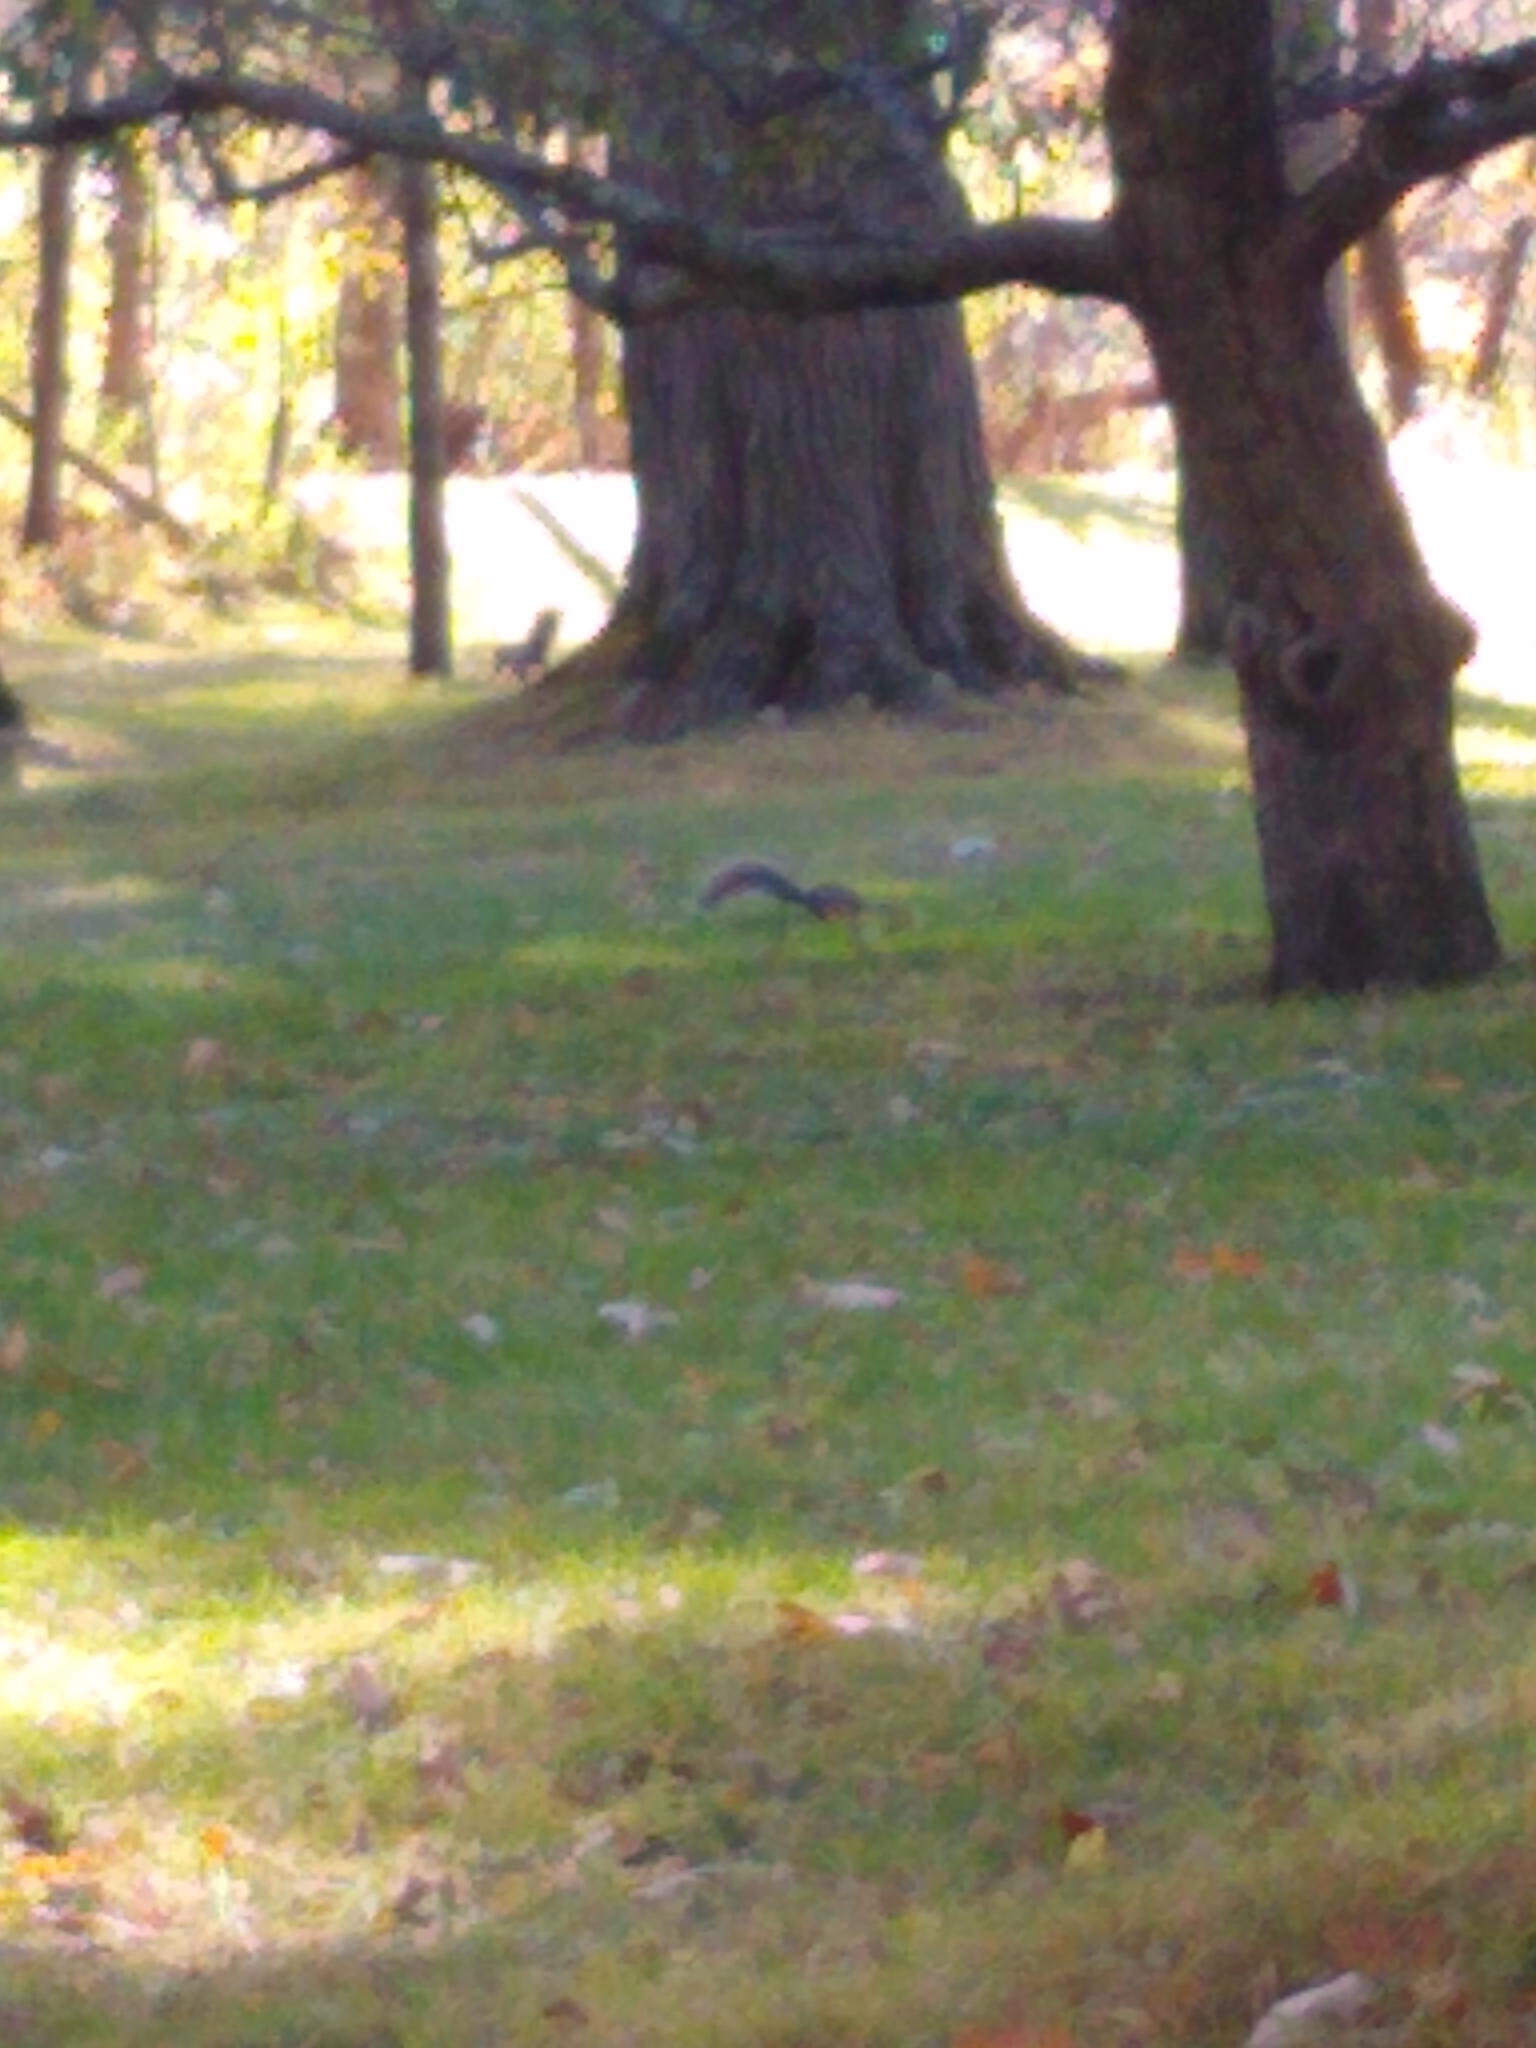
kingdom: Animalia
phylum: Chordata
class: Mammalia
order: Rodentia
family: Sciuridae
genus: Sciurus
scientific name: Sciurus carolinensis
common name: Eastern gray squirrel
